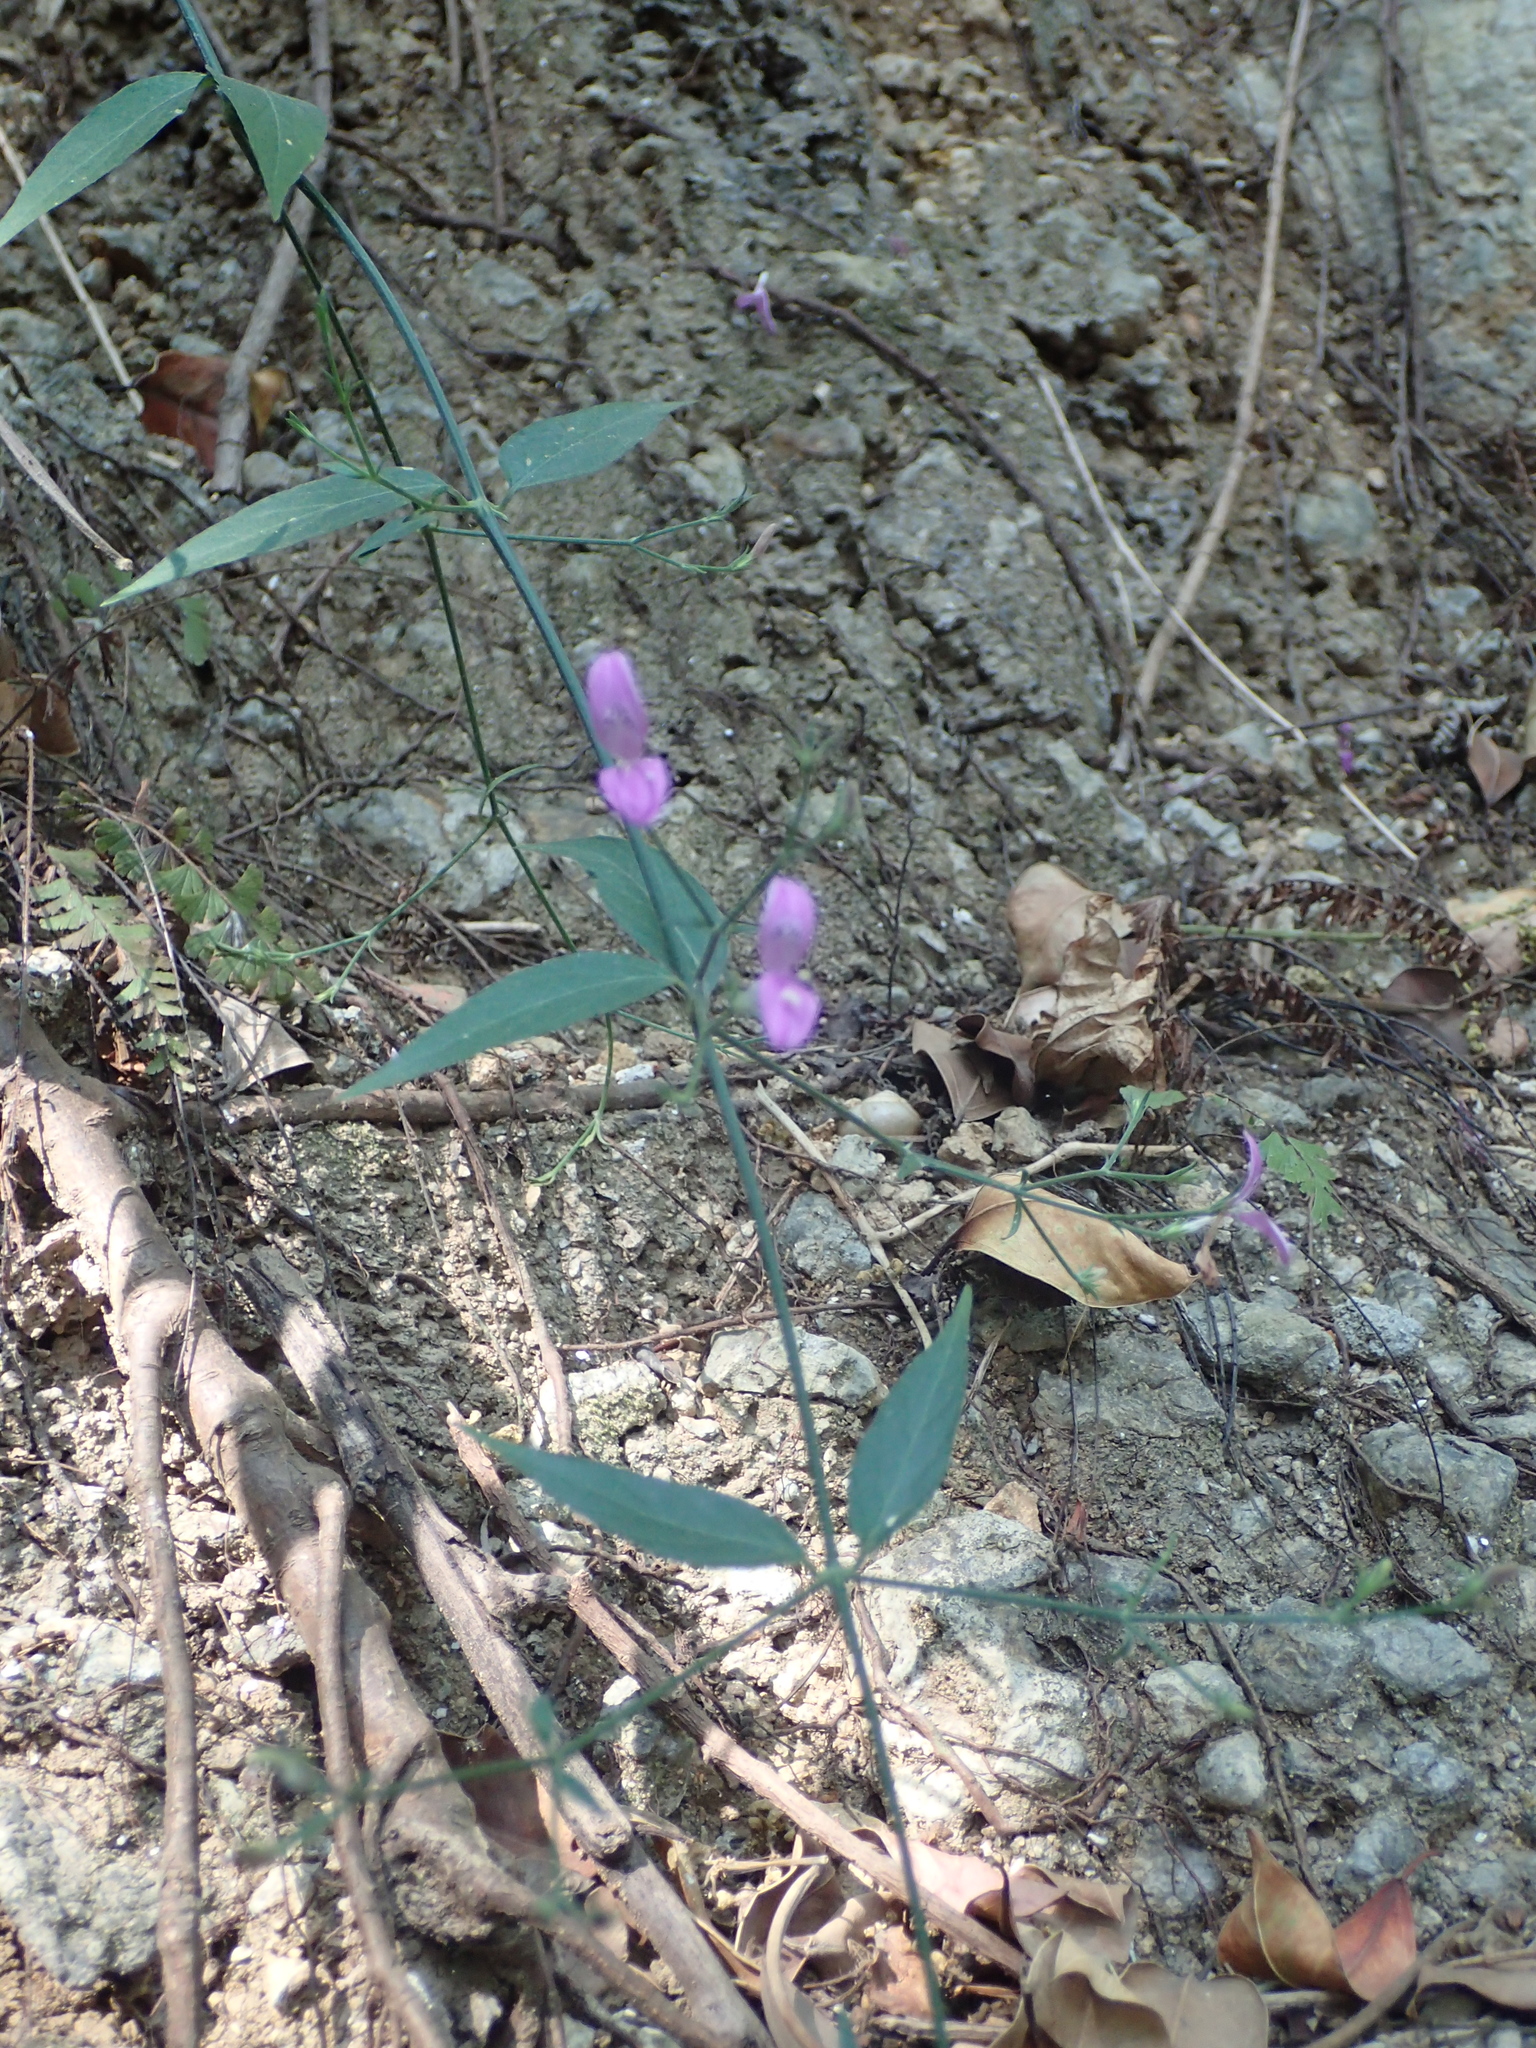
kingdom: Plantae
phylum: Tracheophyta
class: Magnoliopsida
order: Lamiales
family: Acanthaceae
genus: Hypoestes
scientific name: Hypoestes cumingiana
